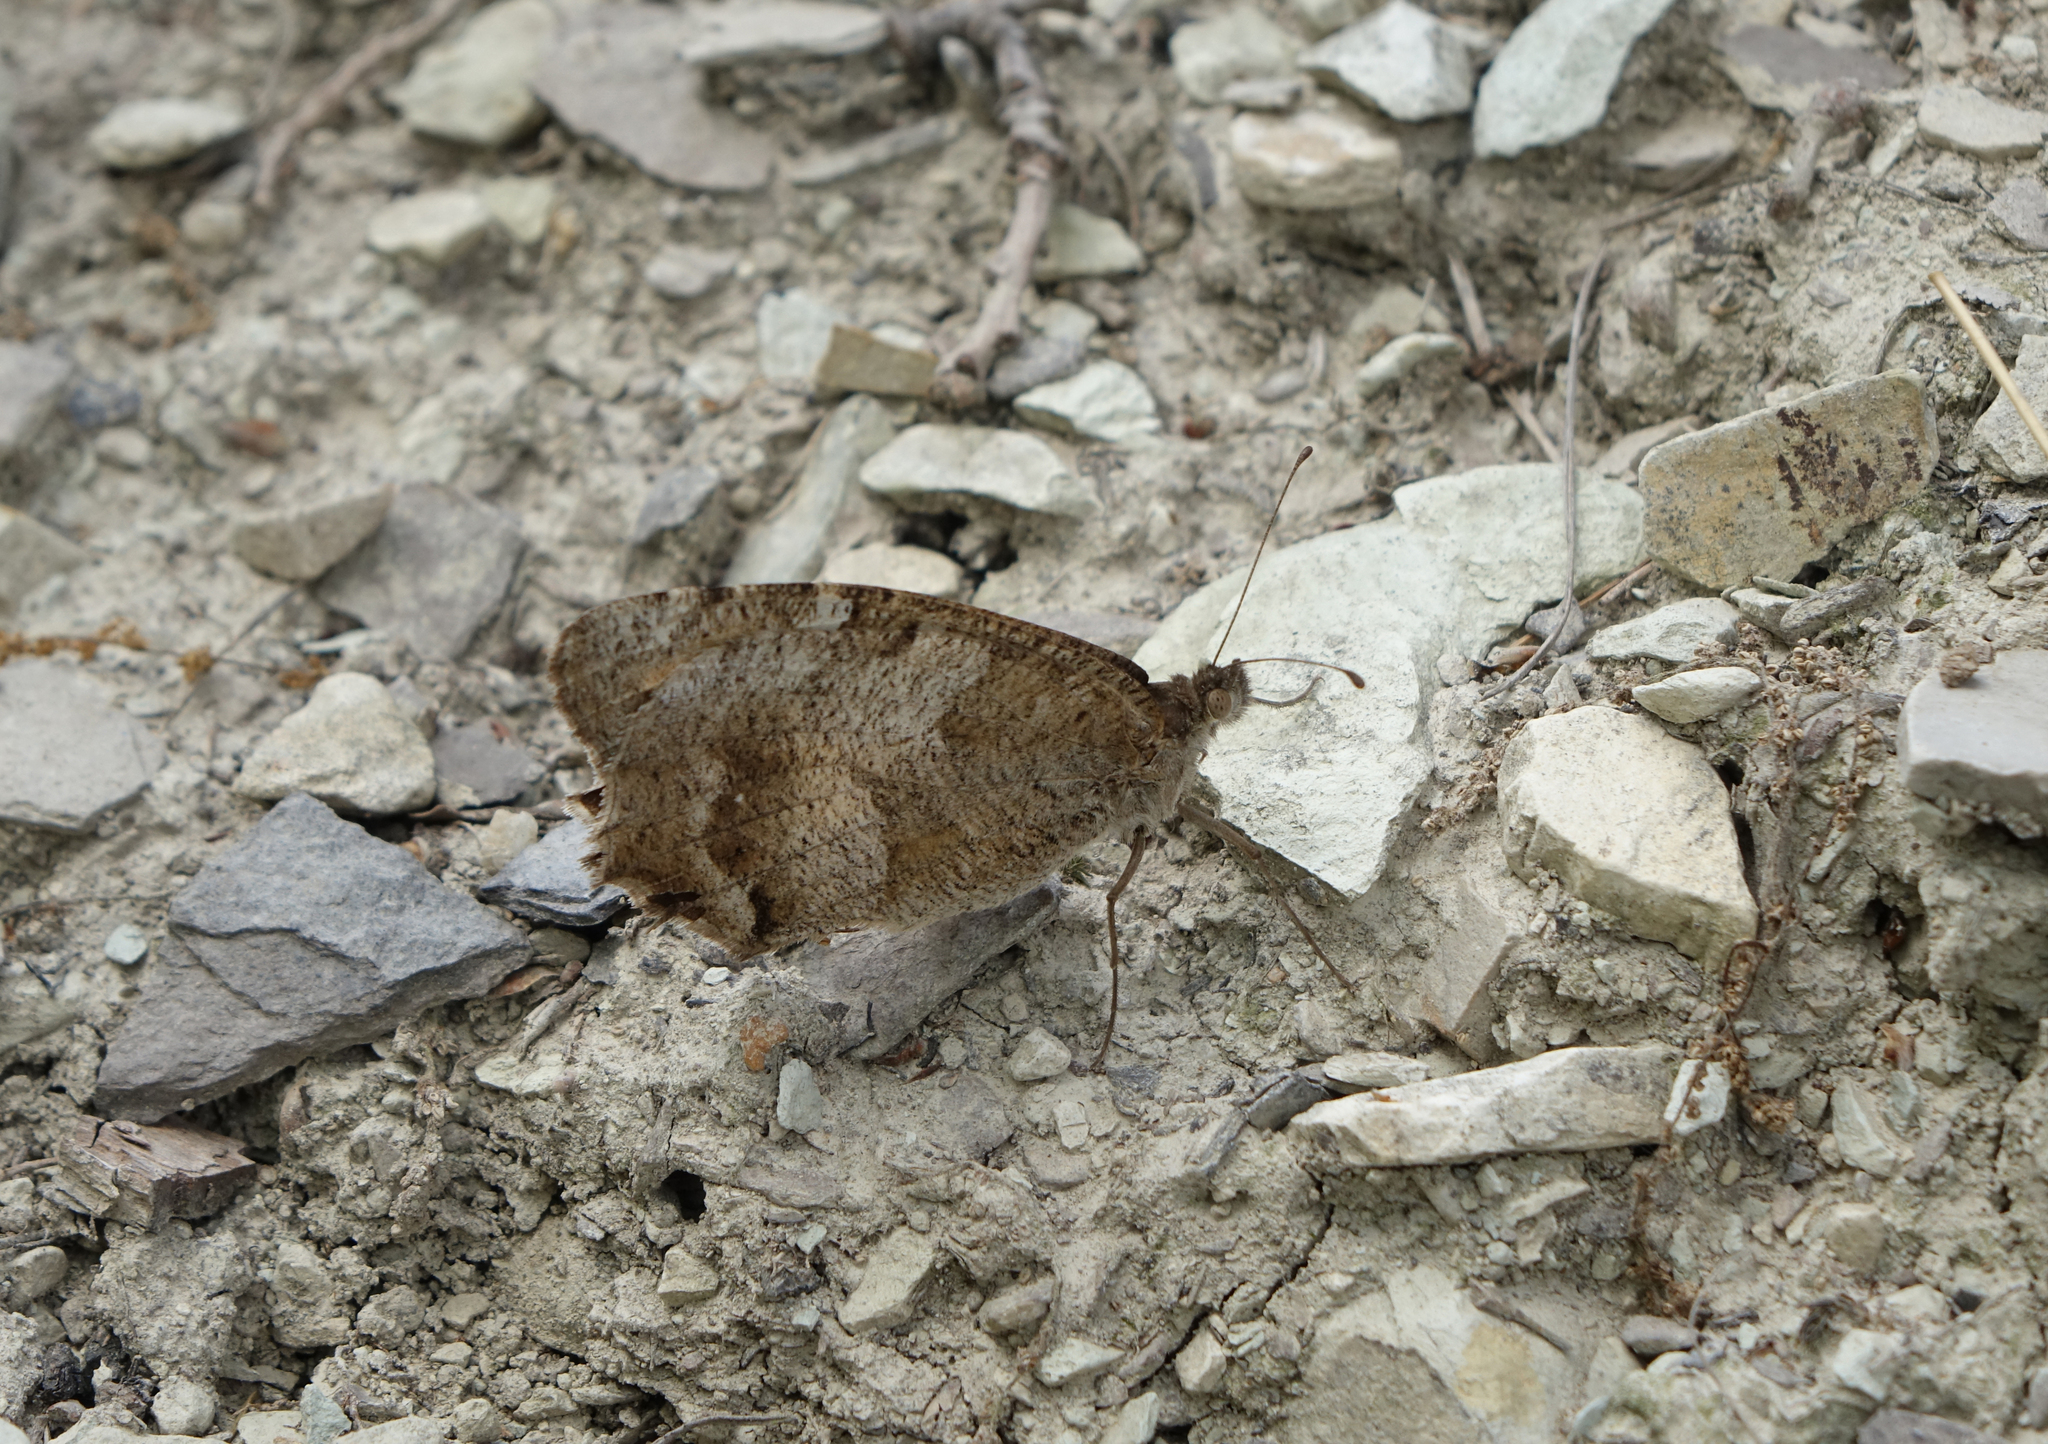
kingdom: Animalia
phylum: Arthropoda
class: Insecta
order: Lepidoptera
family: Nymphalidae
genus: Satyrus
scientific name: Satyrus briseis
